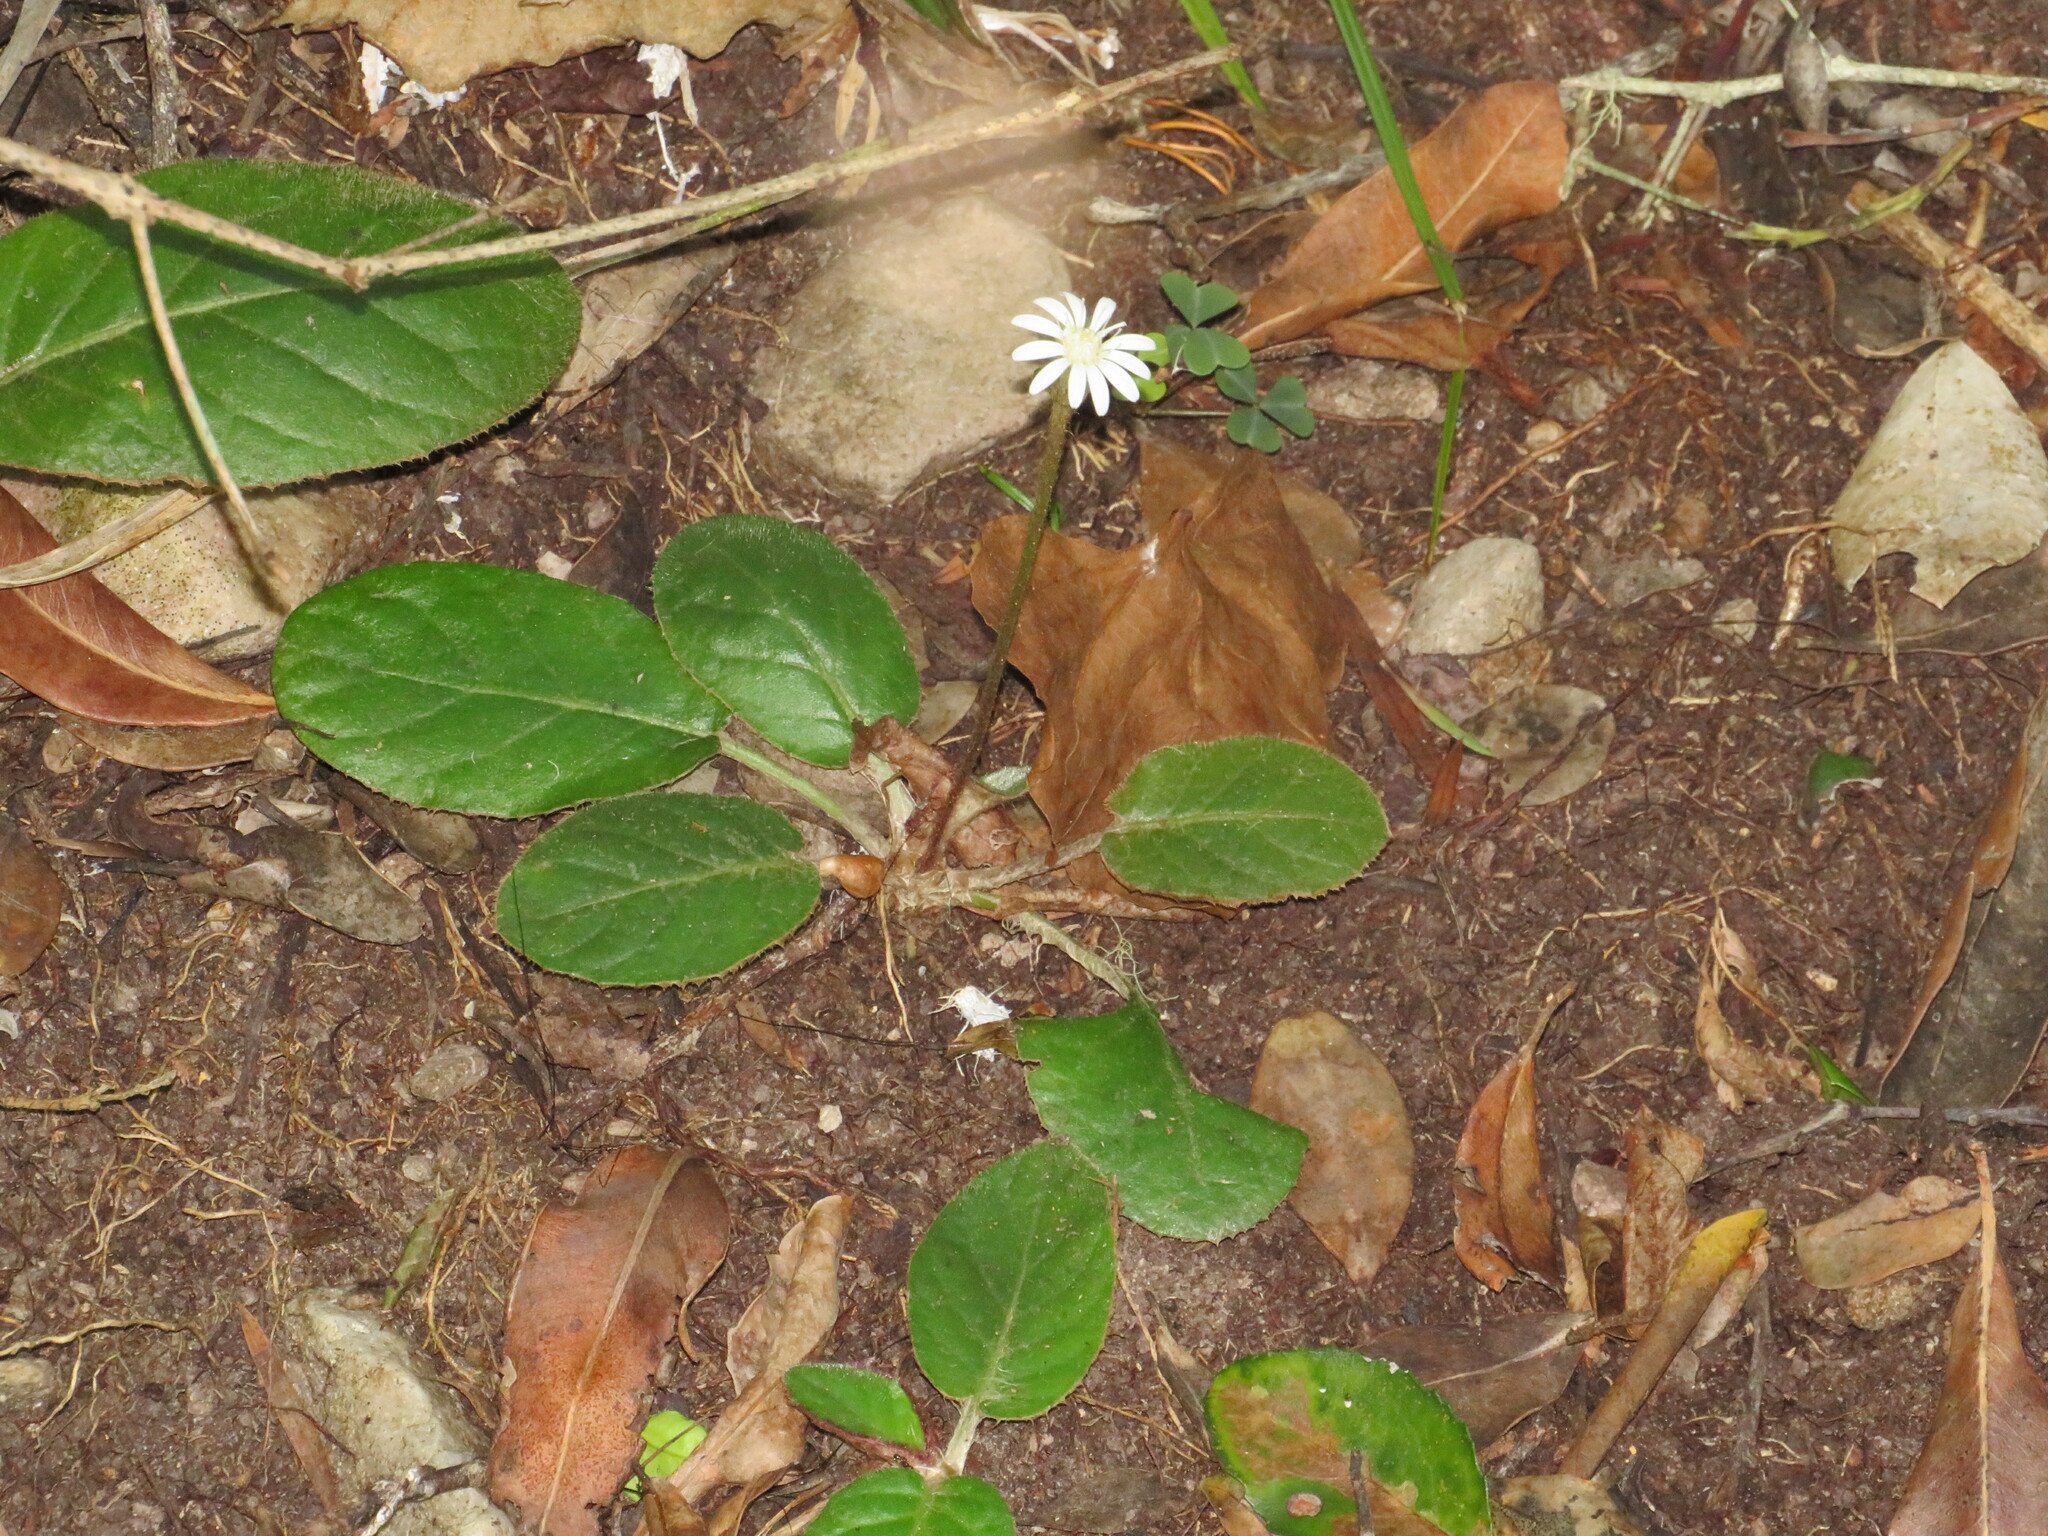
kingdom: Plantae
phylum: Tracheophyta
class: Magnoliopsida
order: Asterales
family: Asteraceae
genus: Piloselloides
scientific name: Piloselloides cordata
